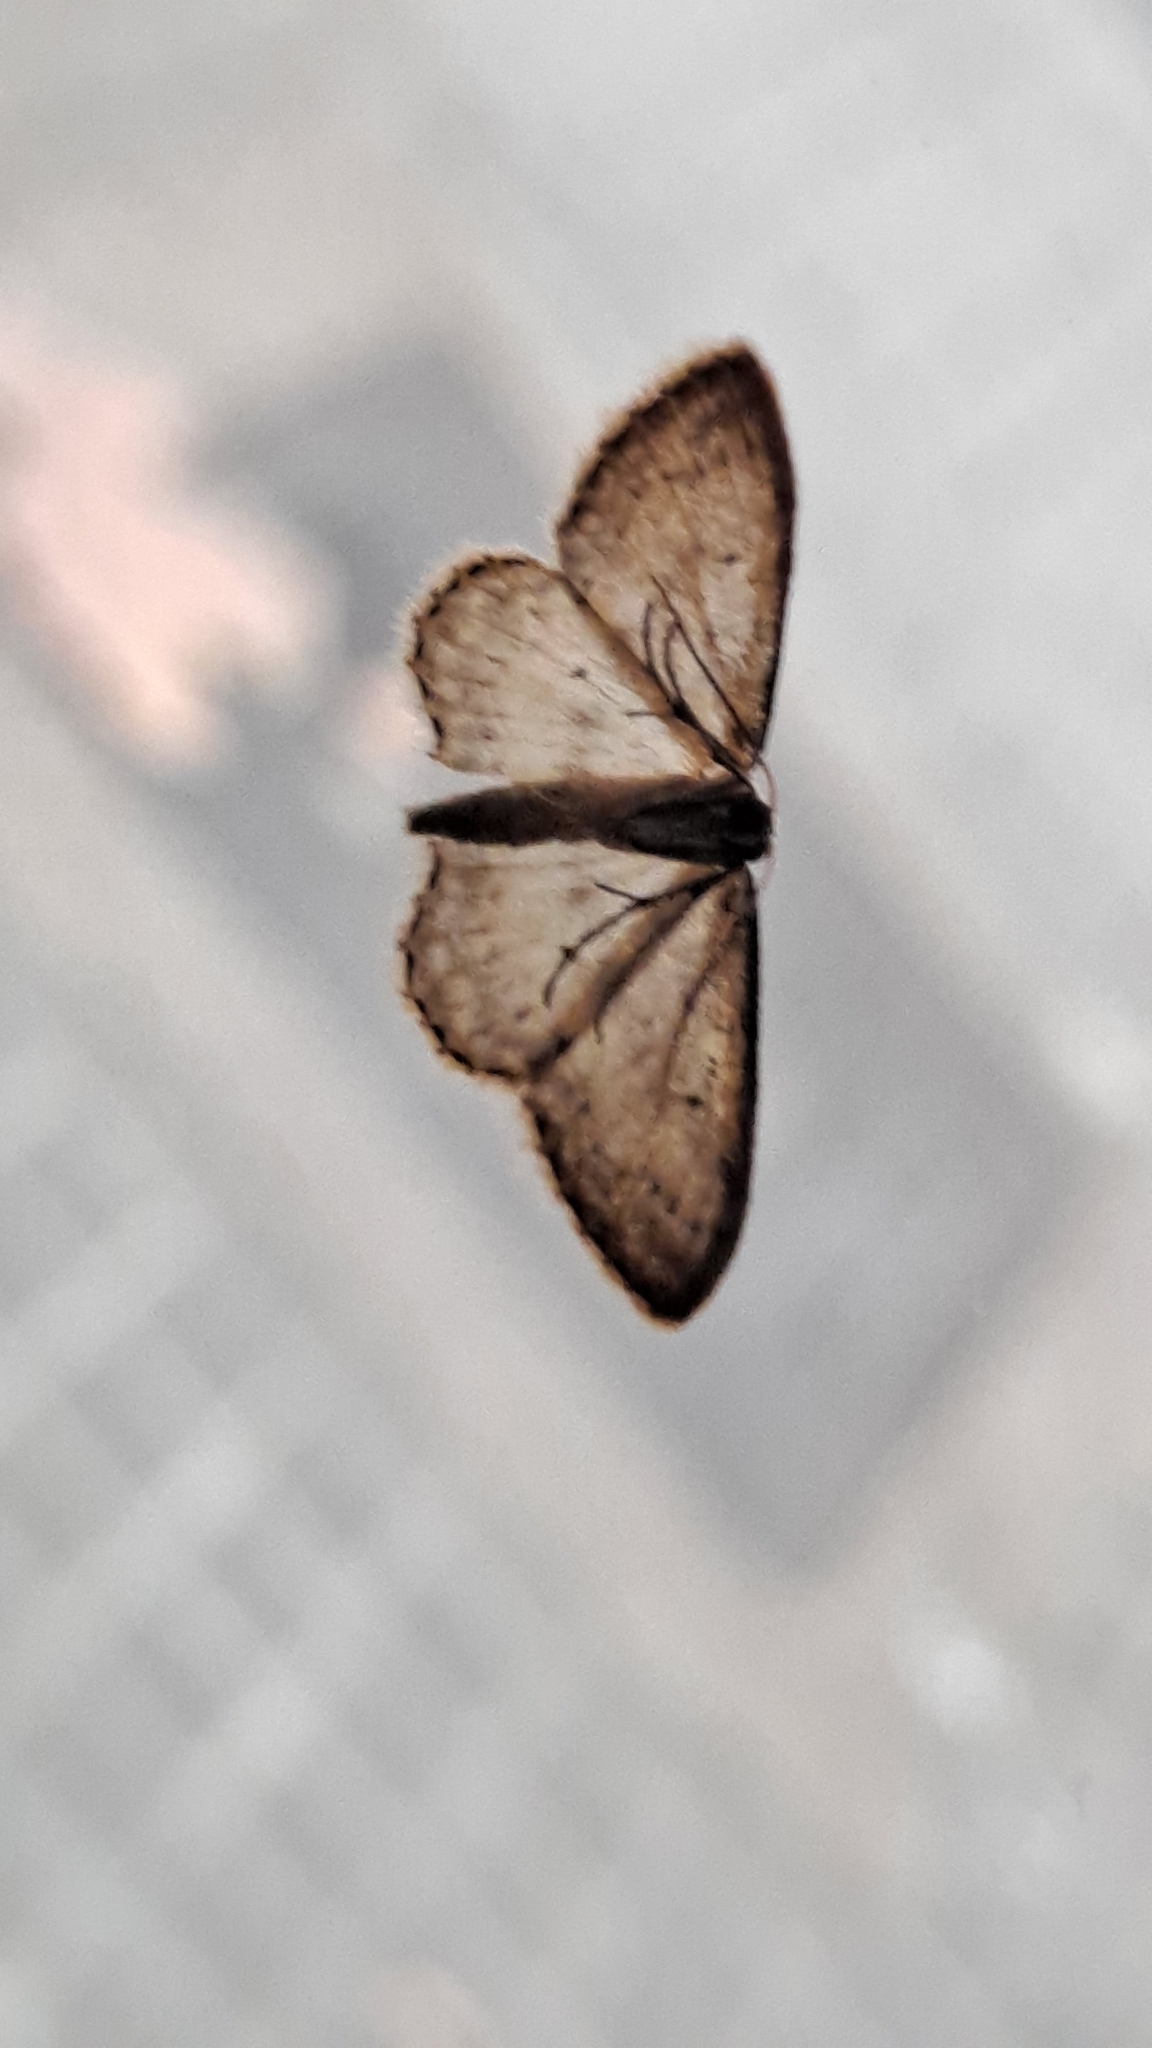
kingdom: Animalia
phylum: Arthropoda
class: Insecta
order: Lepidoptera
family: Geometridae
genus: Idaea
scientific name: Idaea seriata
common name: Small dusty wave
